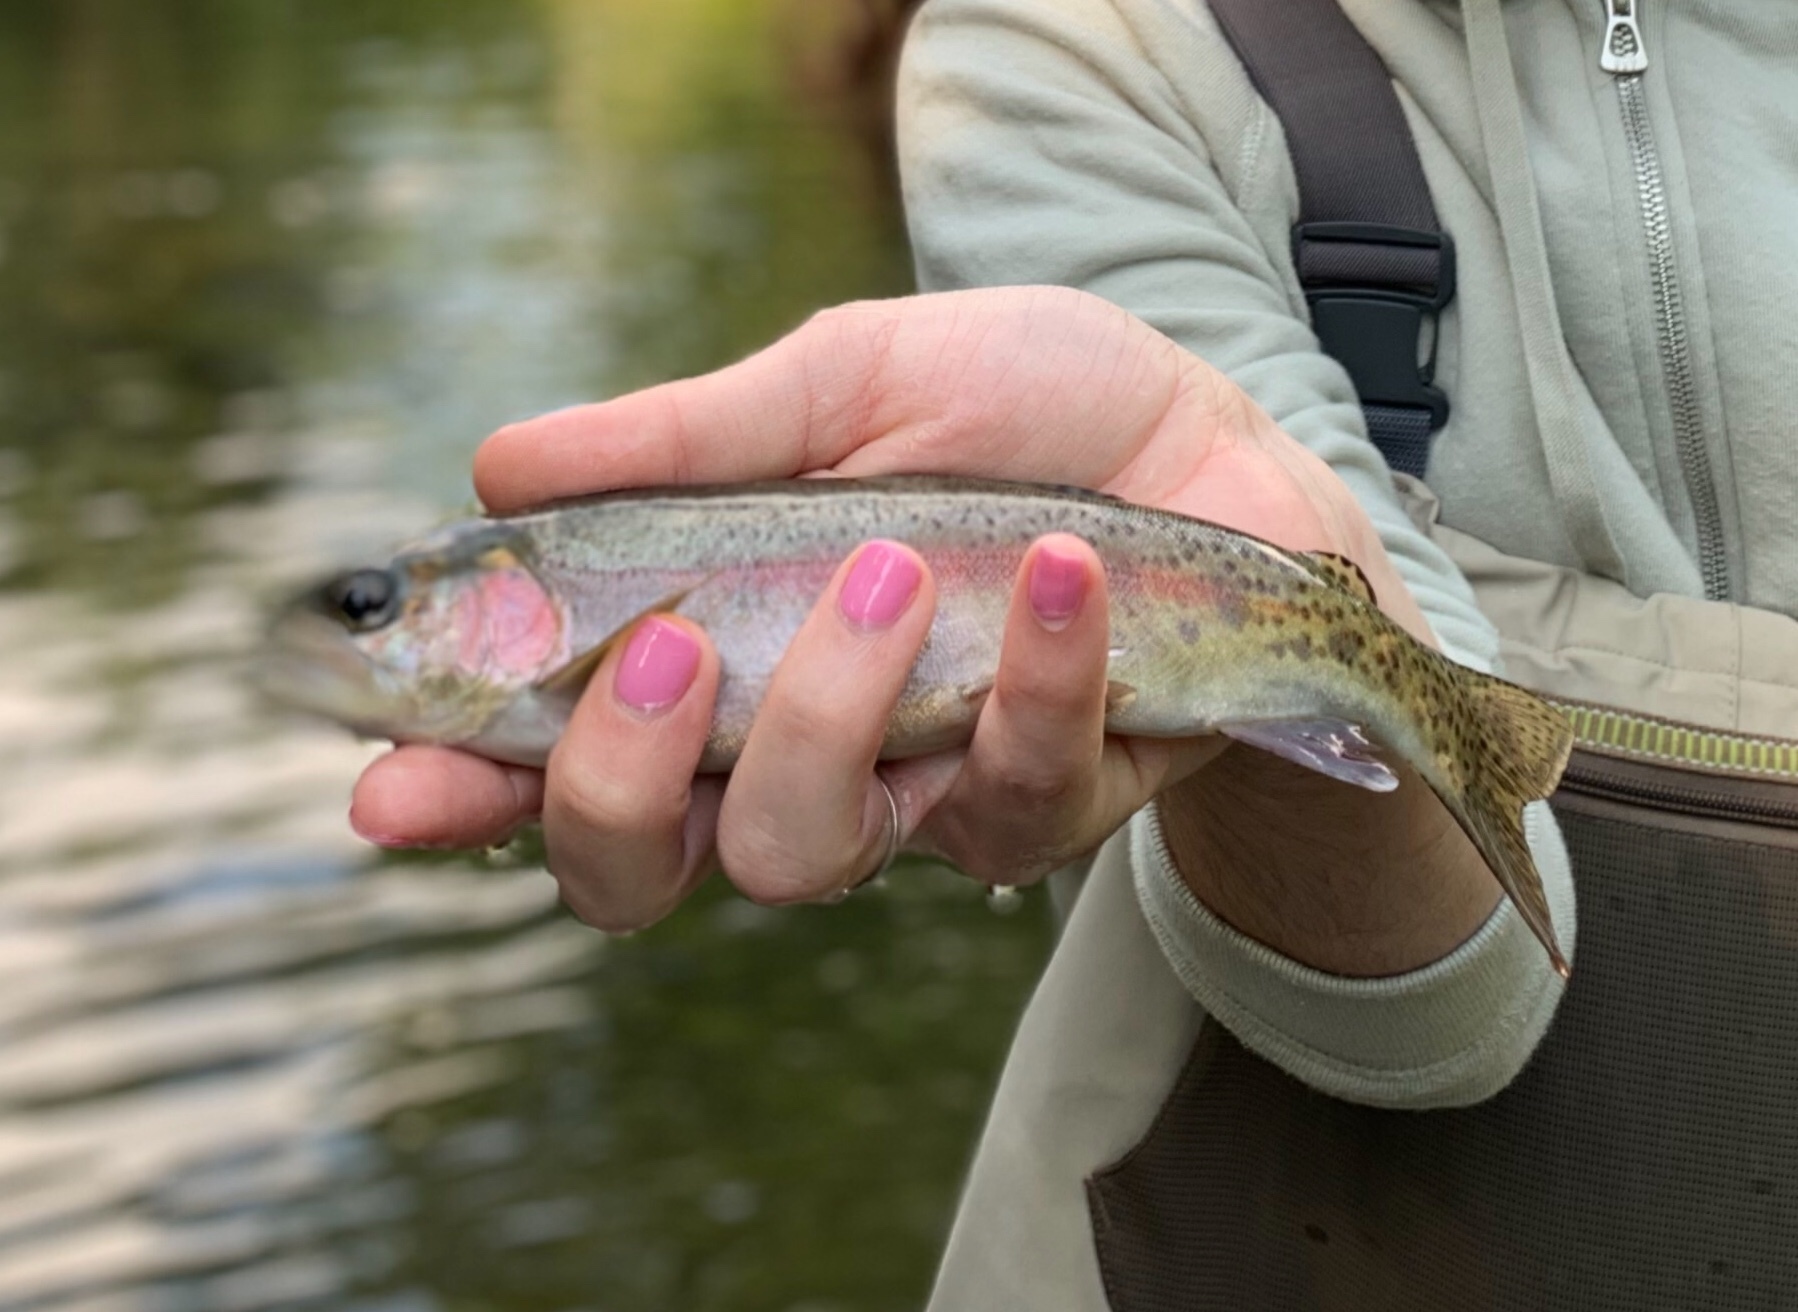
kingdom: Animalia
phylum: Chordata
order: Salmoniformes
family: Salmonidae
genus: Oncorhynchus
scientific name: Oncorhynchus mykiss
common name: Rainbow trout
